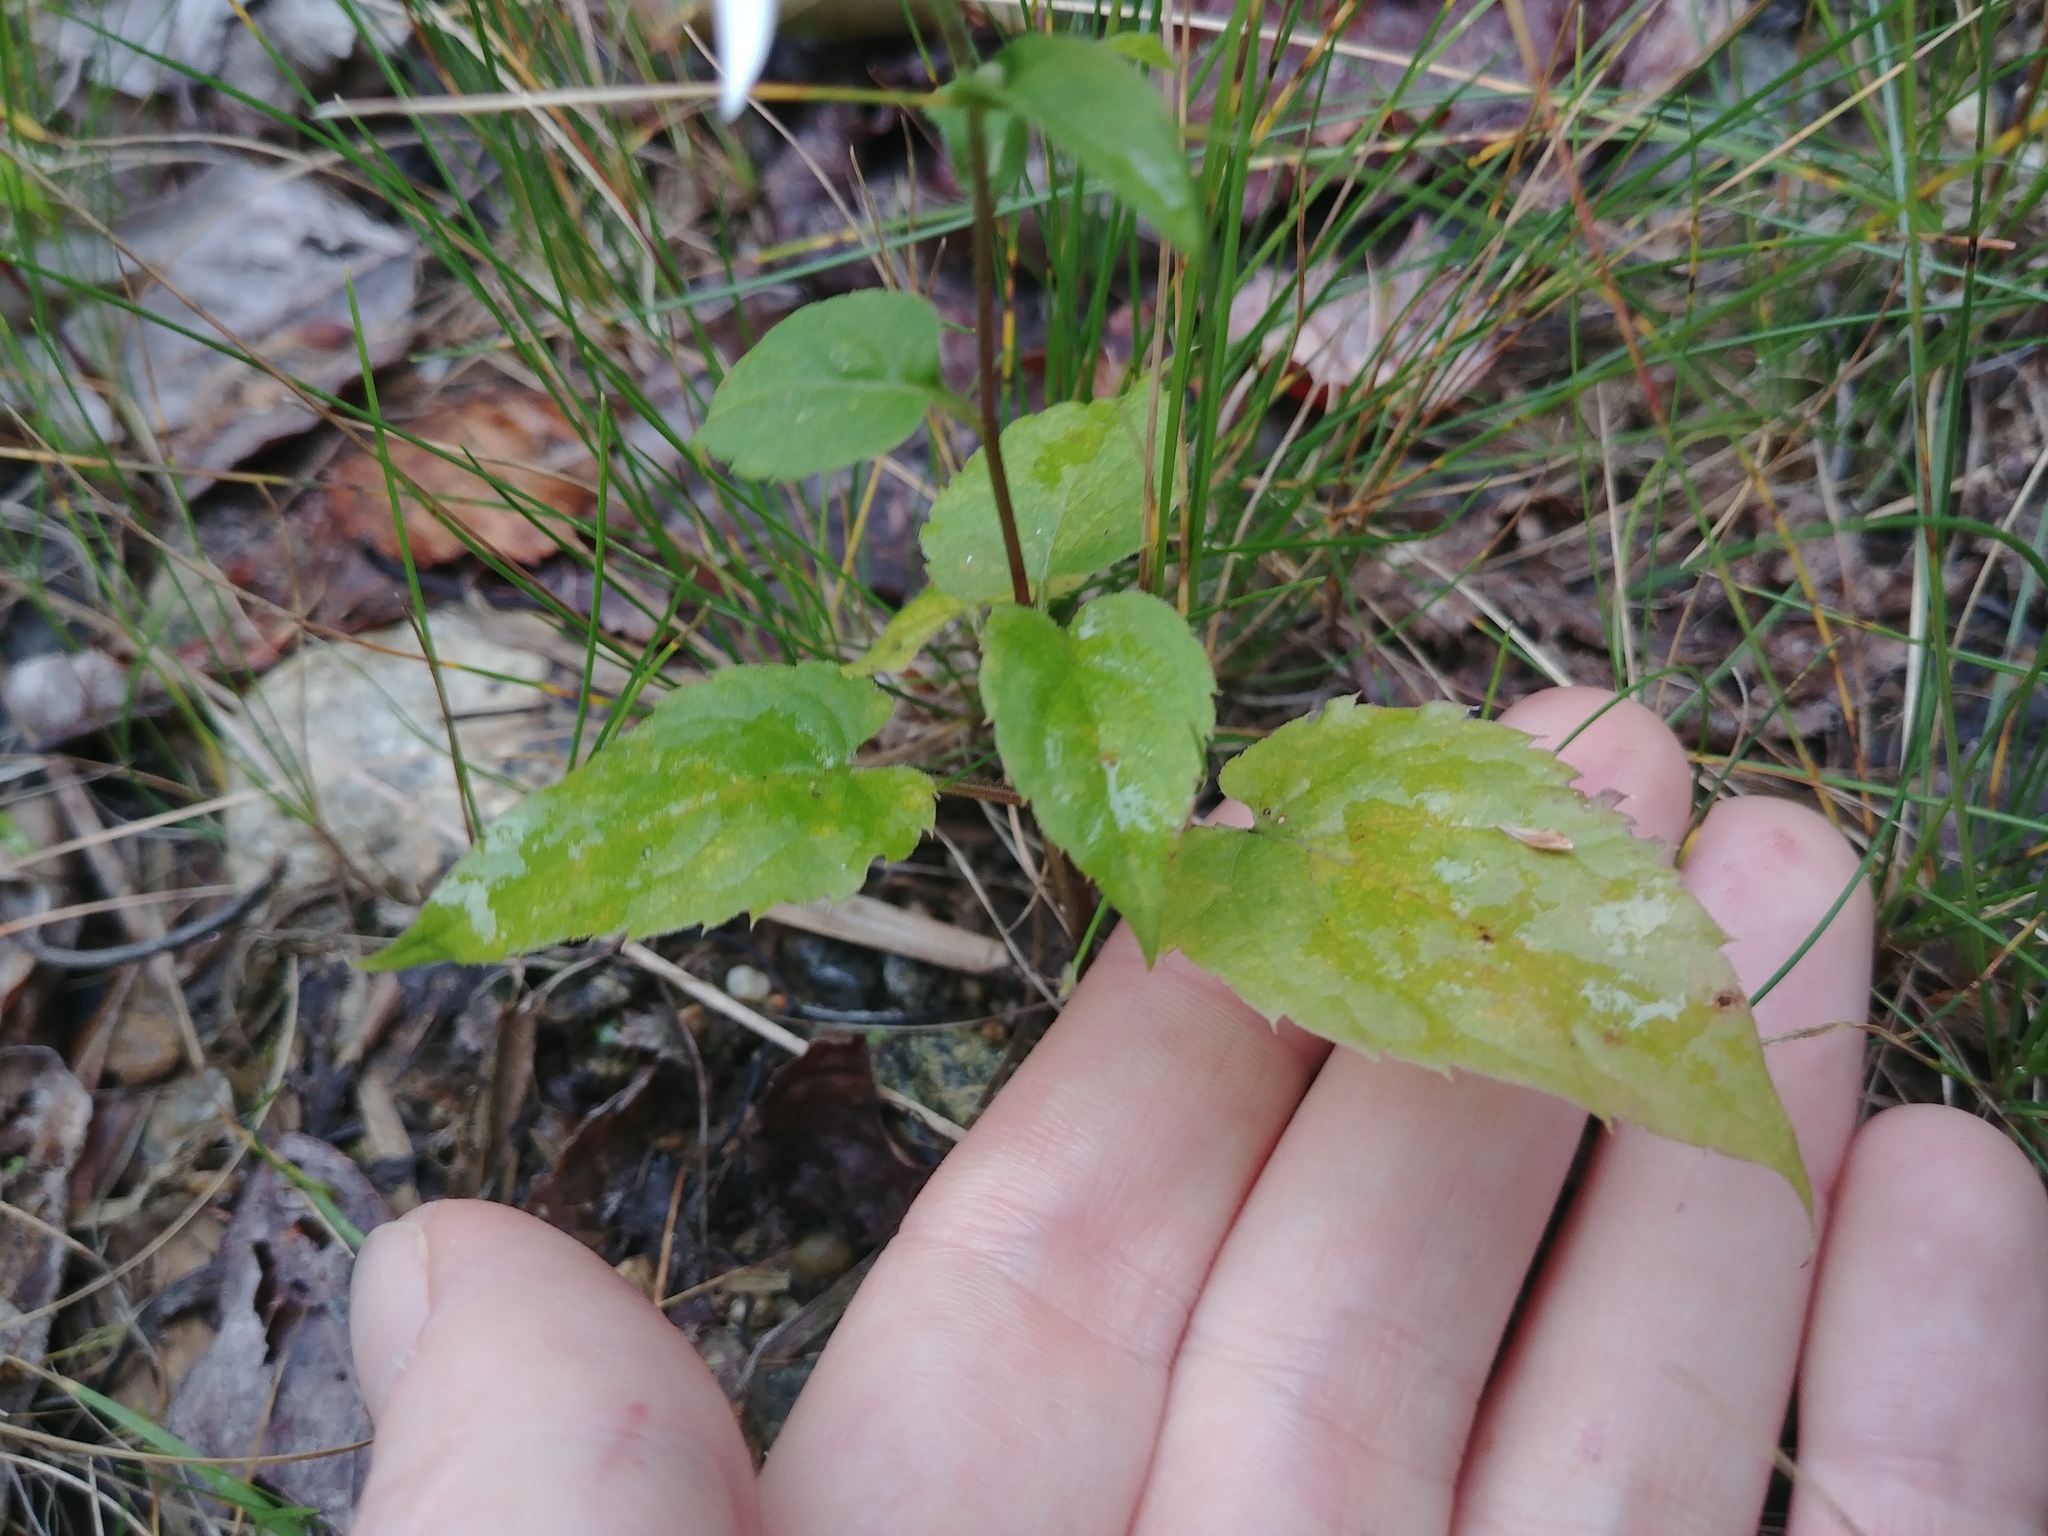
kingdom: Plantae
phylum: Tracheophyta
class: Magnoliopsida
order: Asterales
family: Asteraceae
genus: Eurybia
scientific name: Eurybia divaricata
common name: White wood aster
